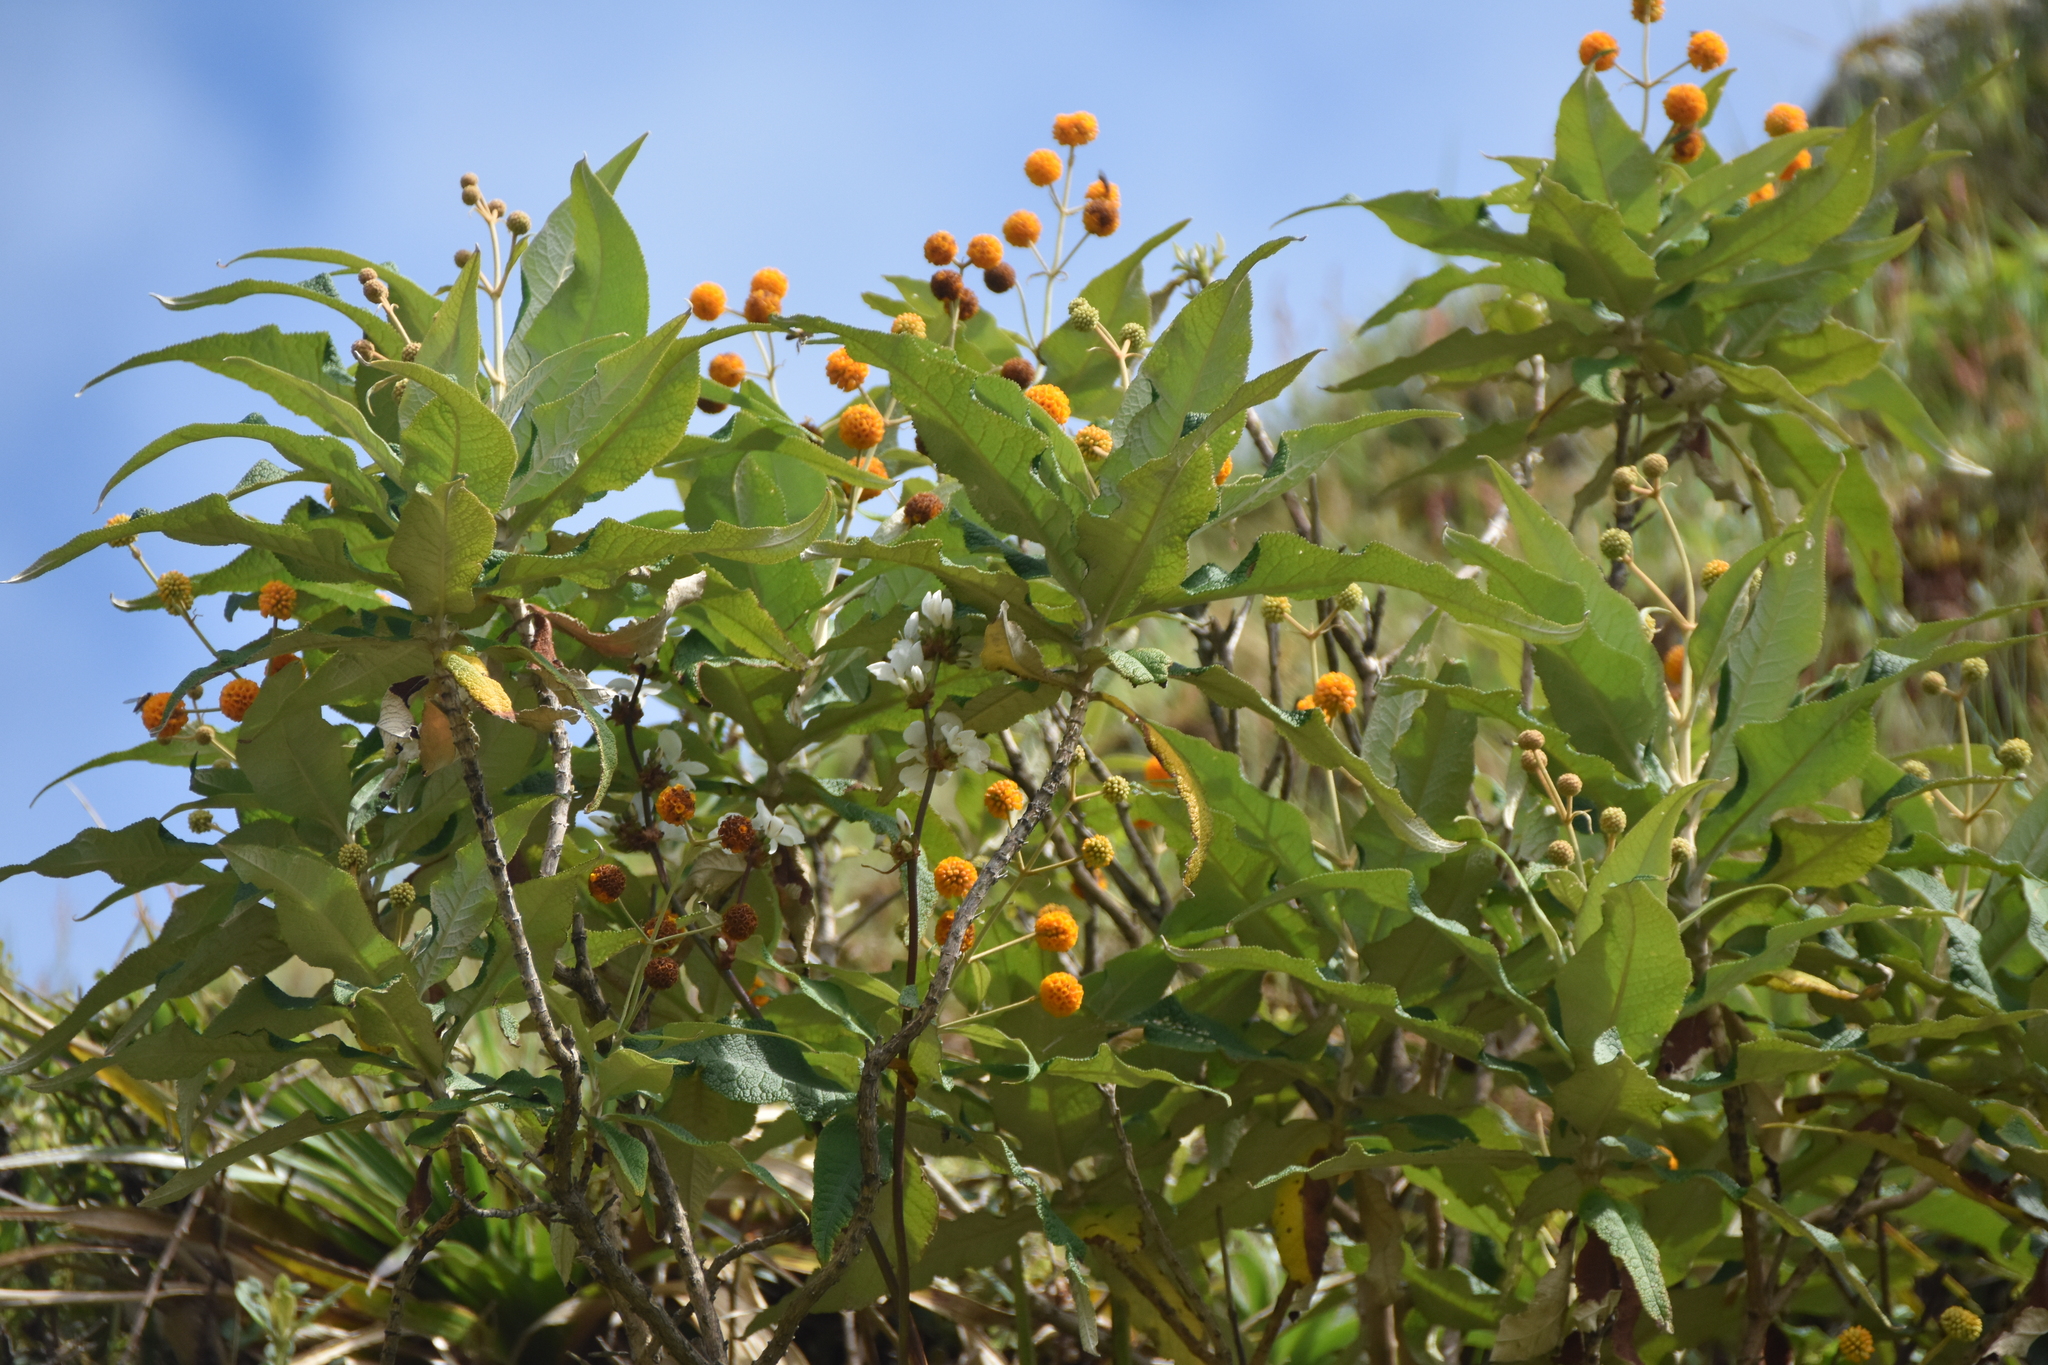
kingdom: Plantae
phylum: Tracheophyta
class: Magnoliopsida
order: Lamiales
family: Scrophulariaceae
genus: Buddleja
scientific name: Buddleja globosa
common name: Orange-ball-tree
